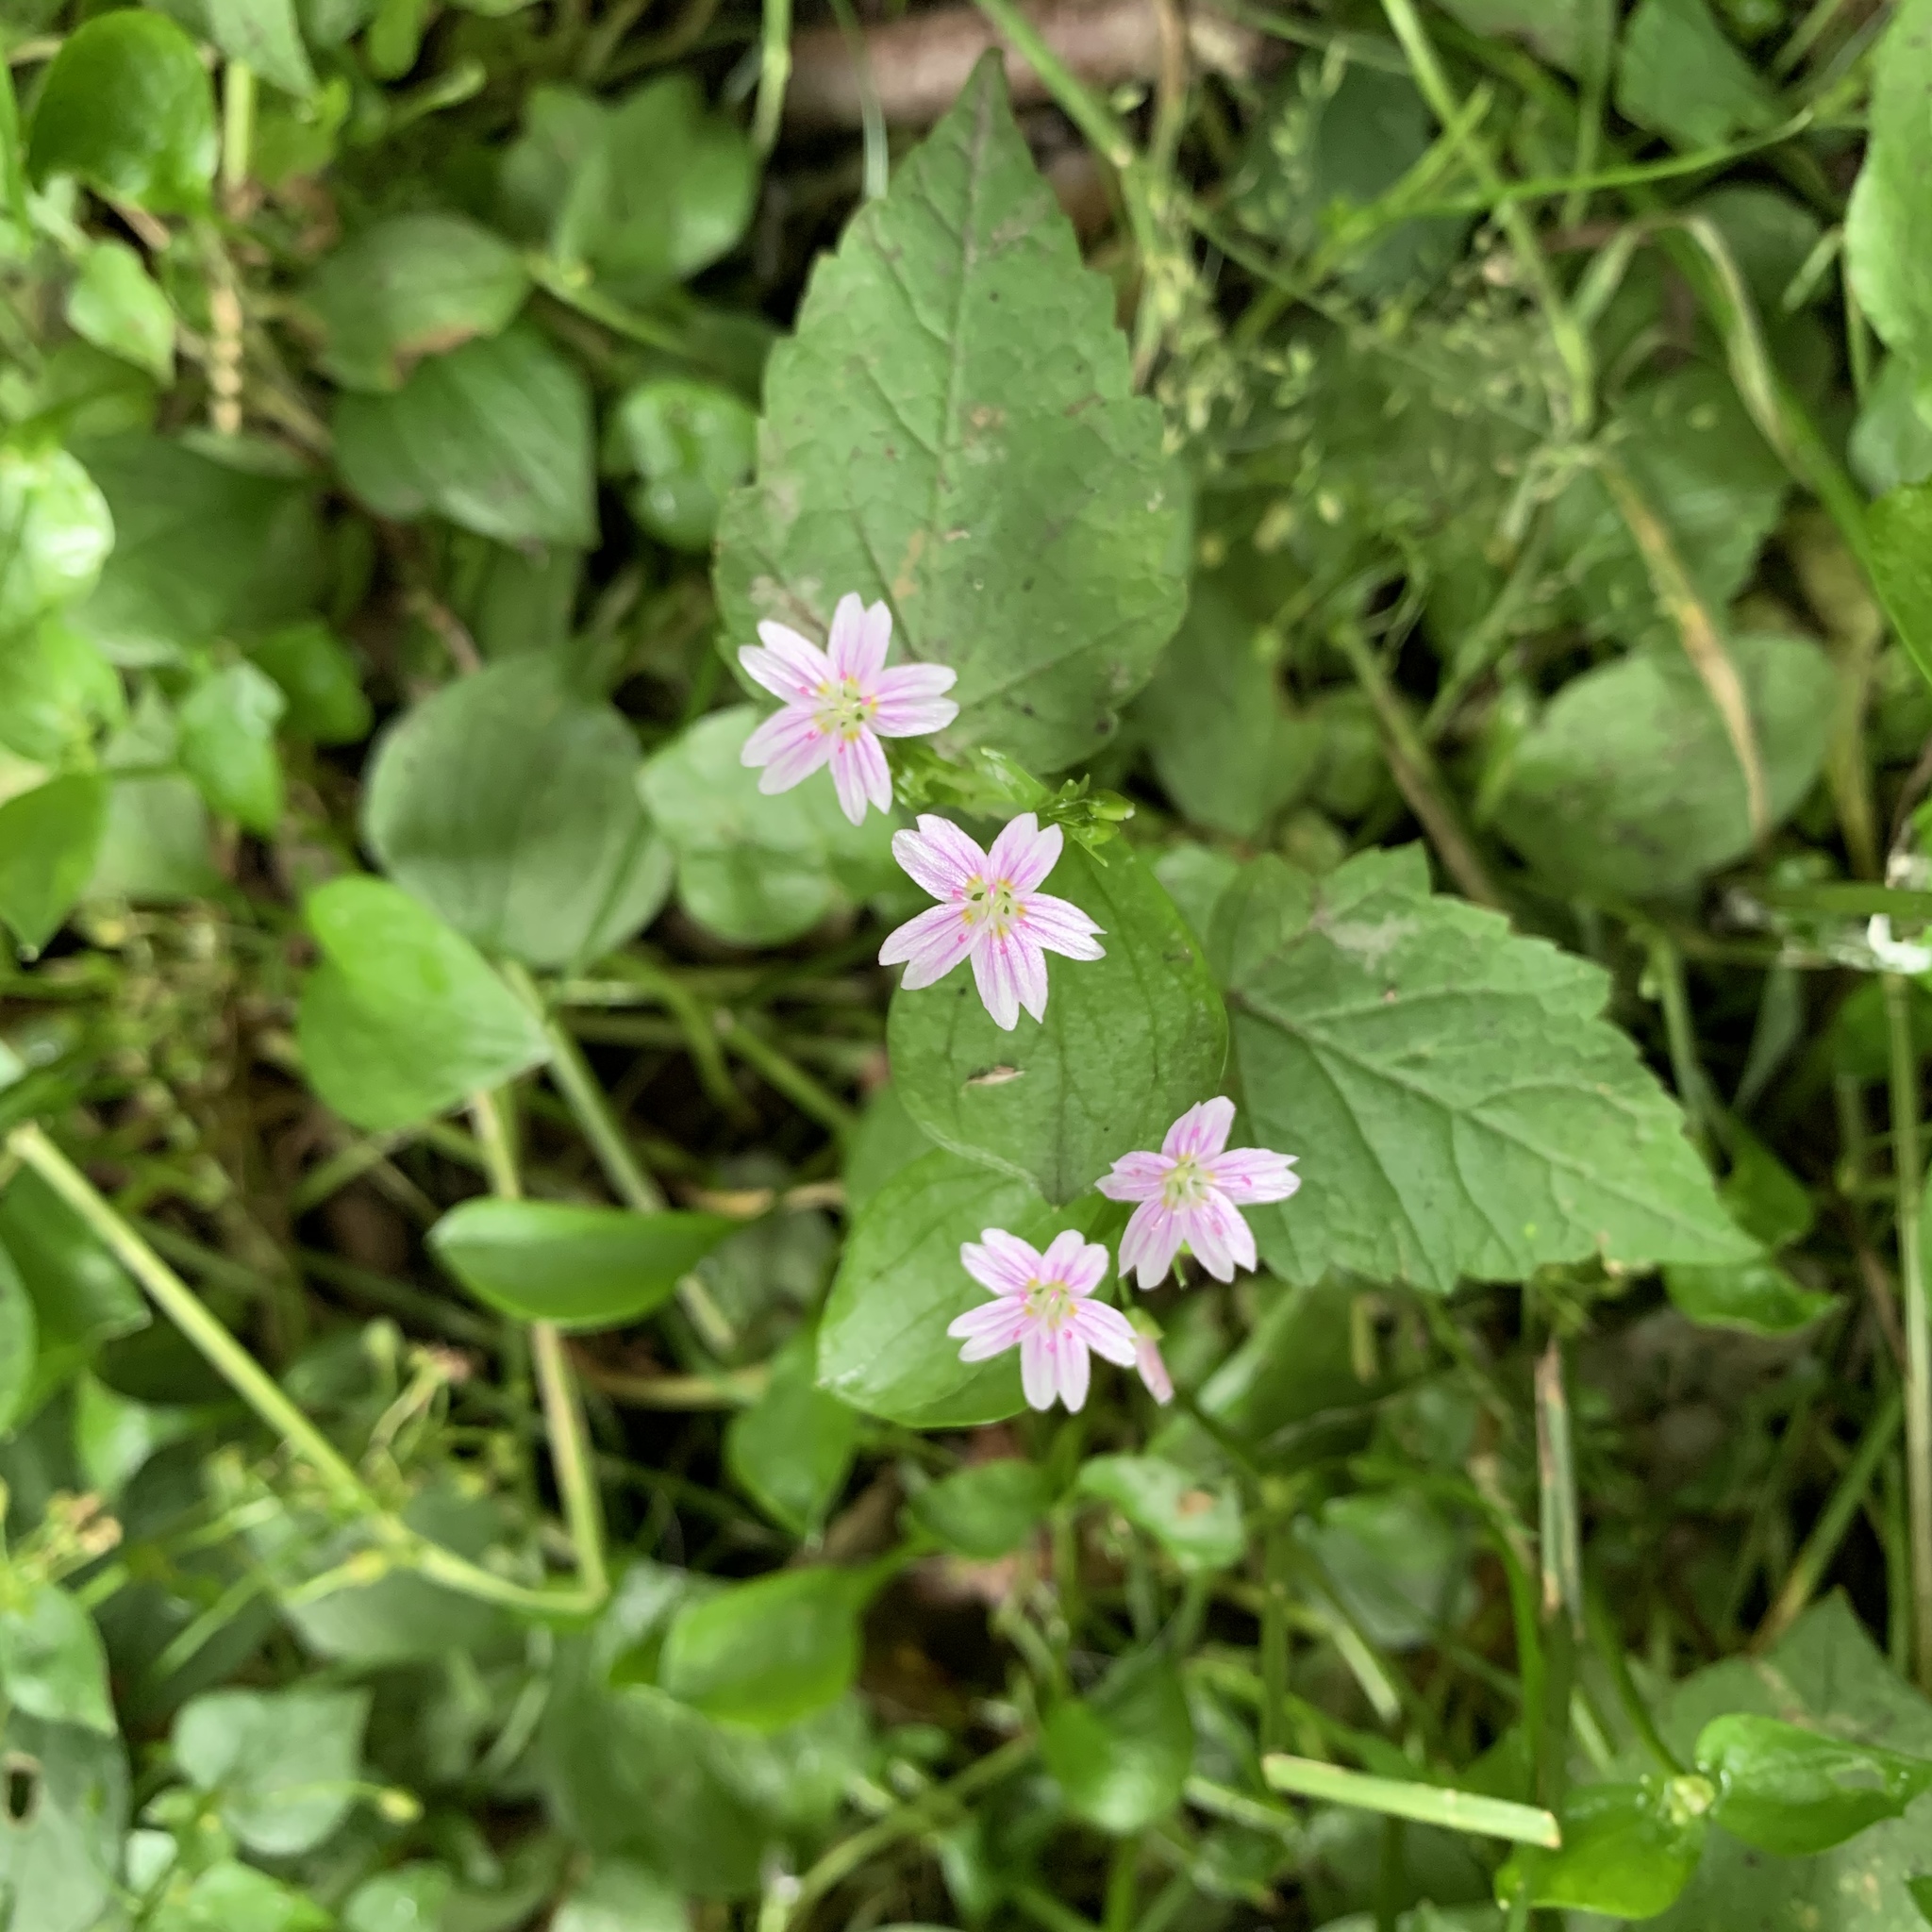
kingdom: Plantae
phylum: Tracheophyta
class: Magnoliopsida
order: Caryophyllales
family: Montiaceae
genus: Claytonia
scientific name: Claytonia sibirica
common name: Pink purslane
